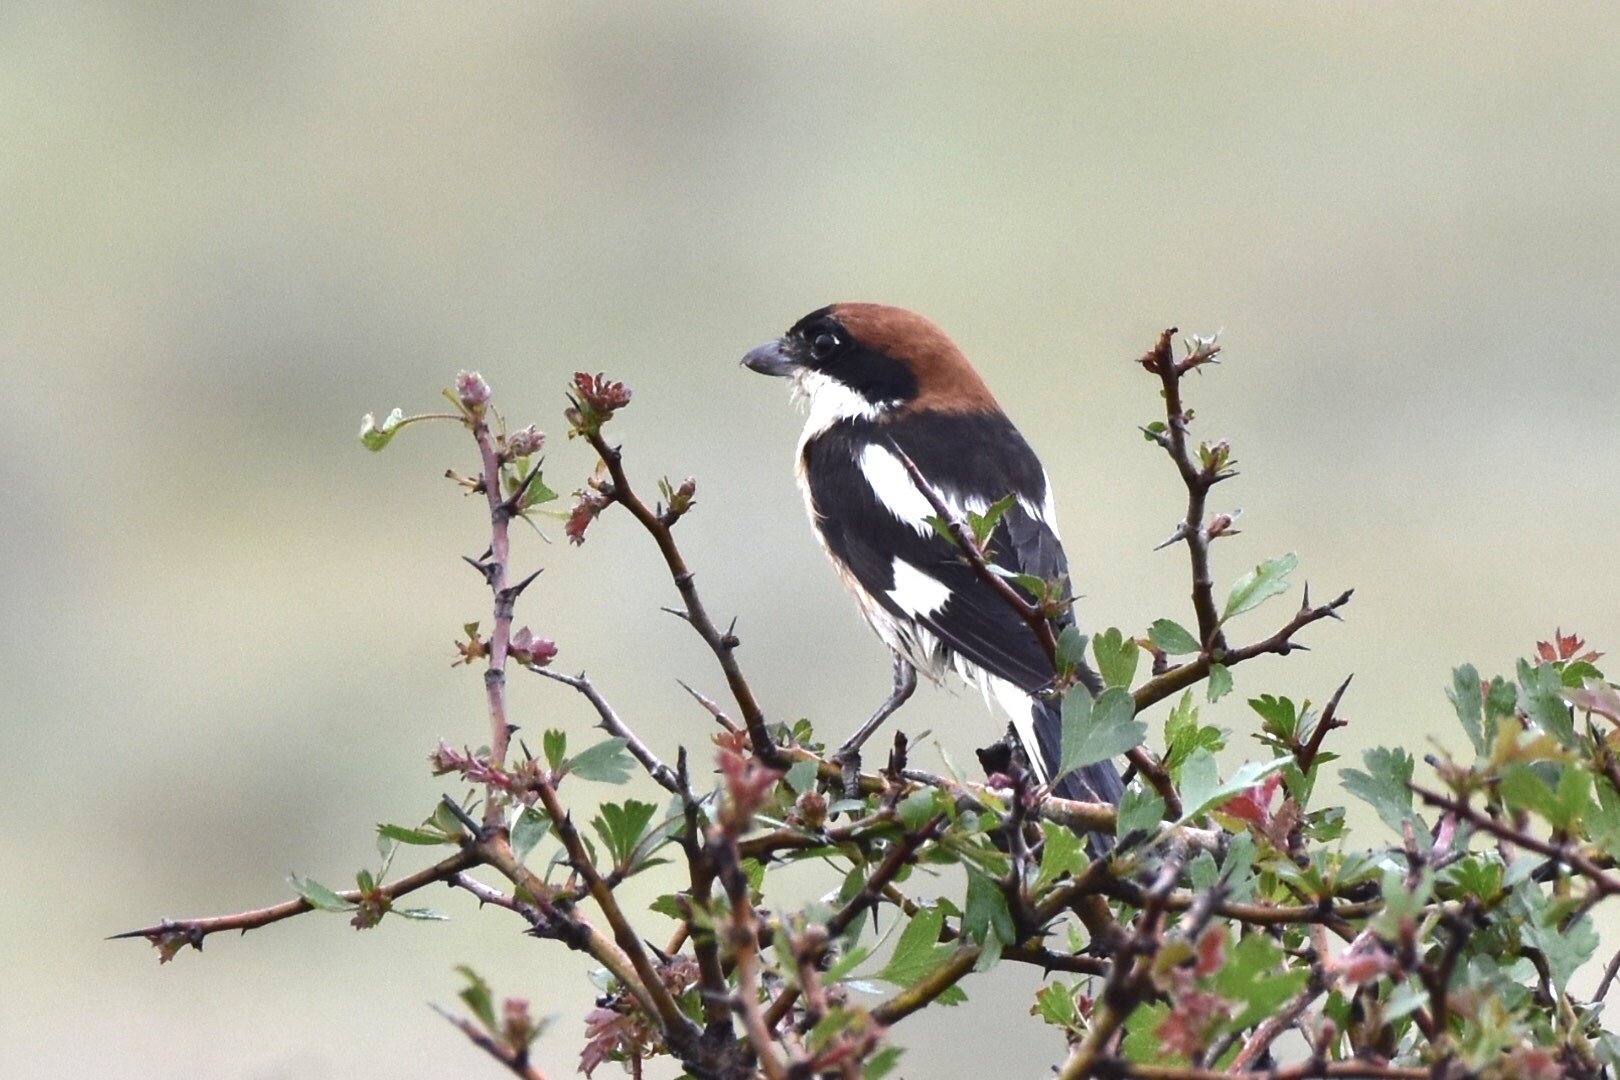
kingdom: Animalia
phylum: Chordata
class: Aves
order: Passeriformes
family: Laniidae
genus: Lanius
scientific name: Lanius senator
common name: Woodchat shrike
